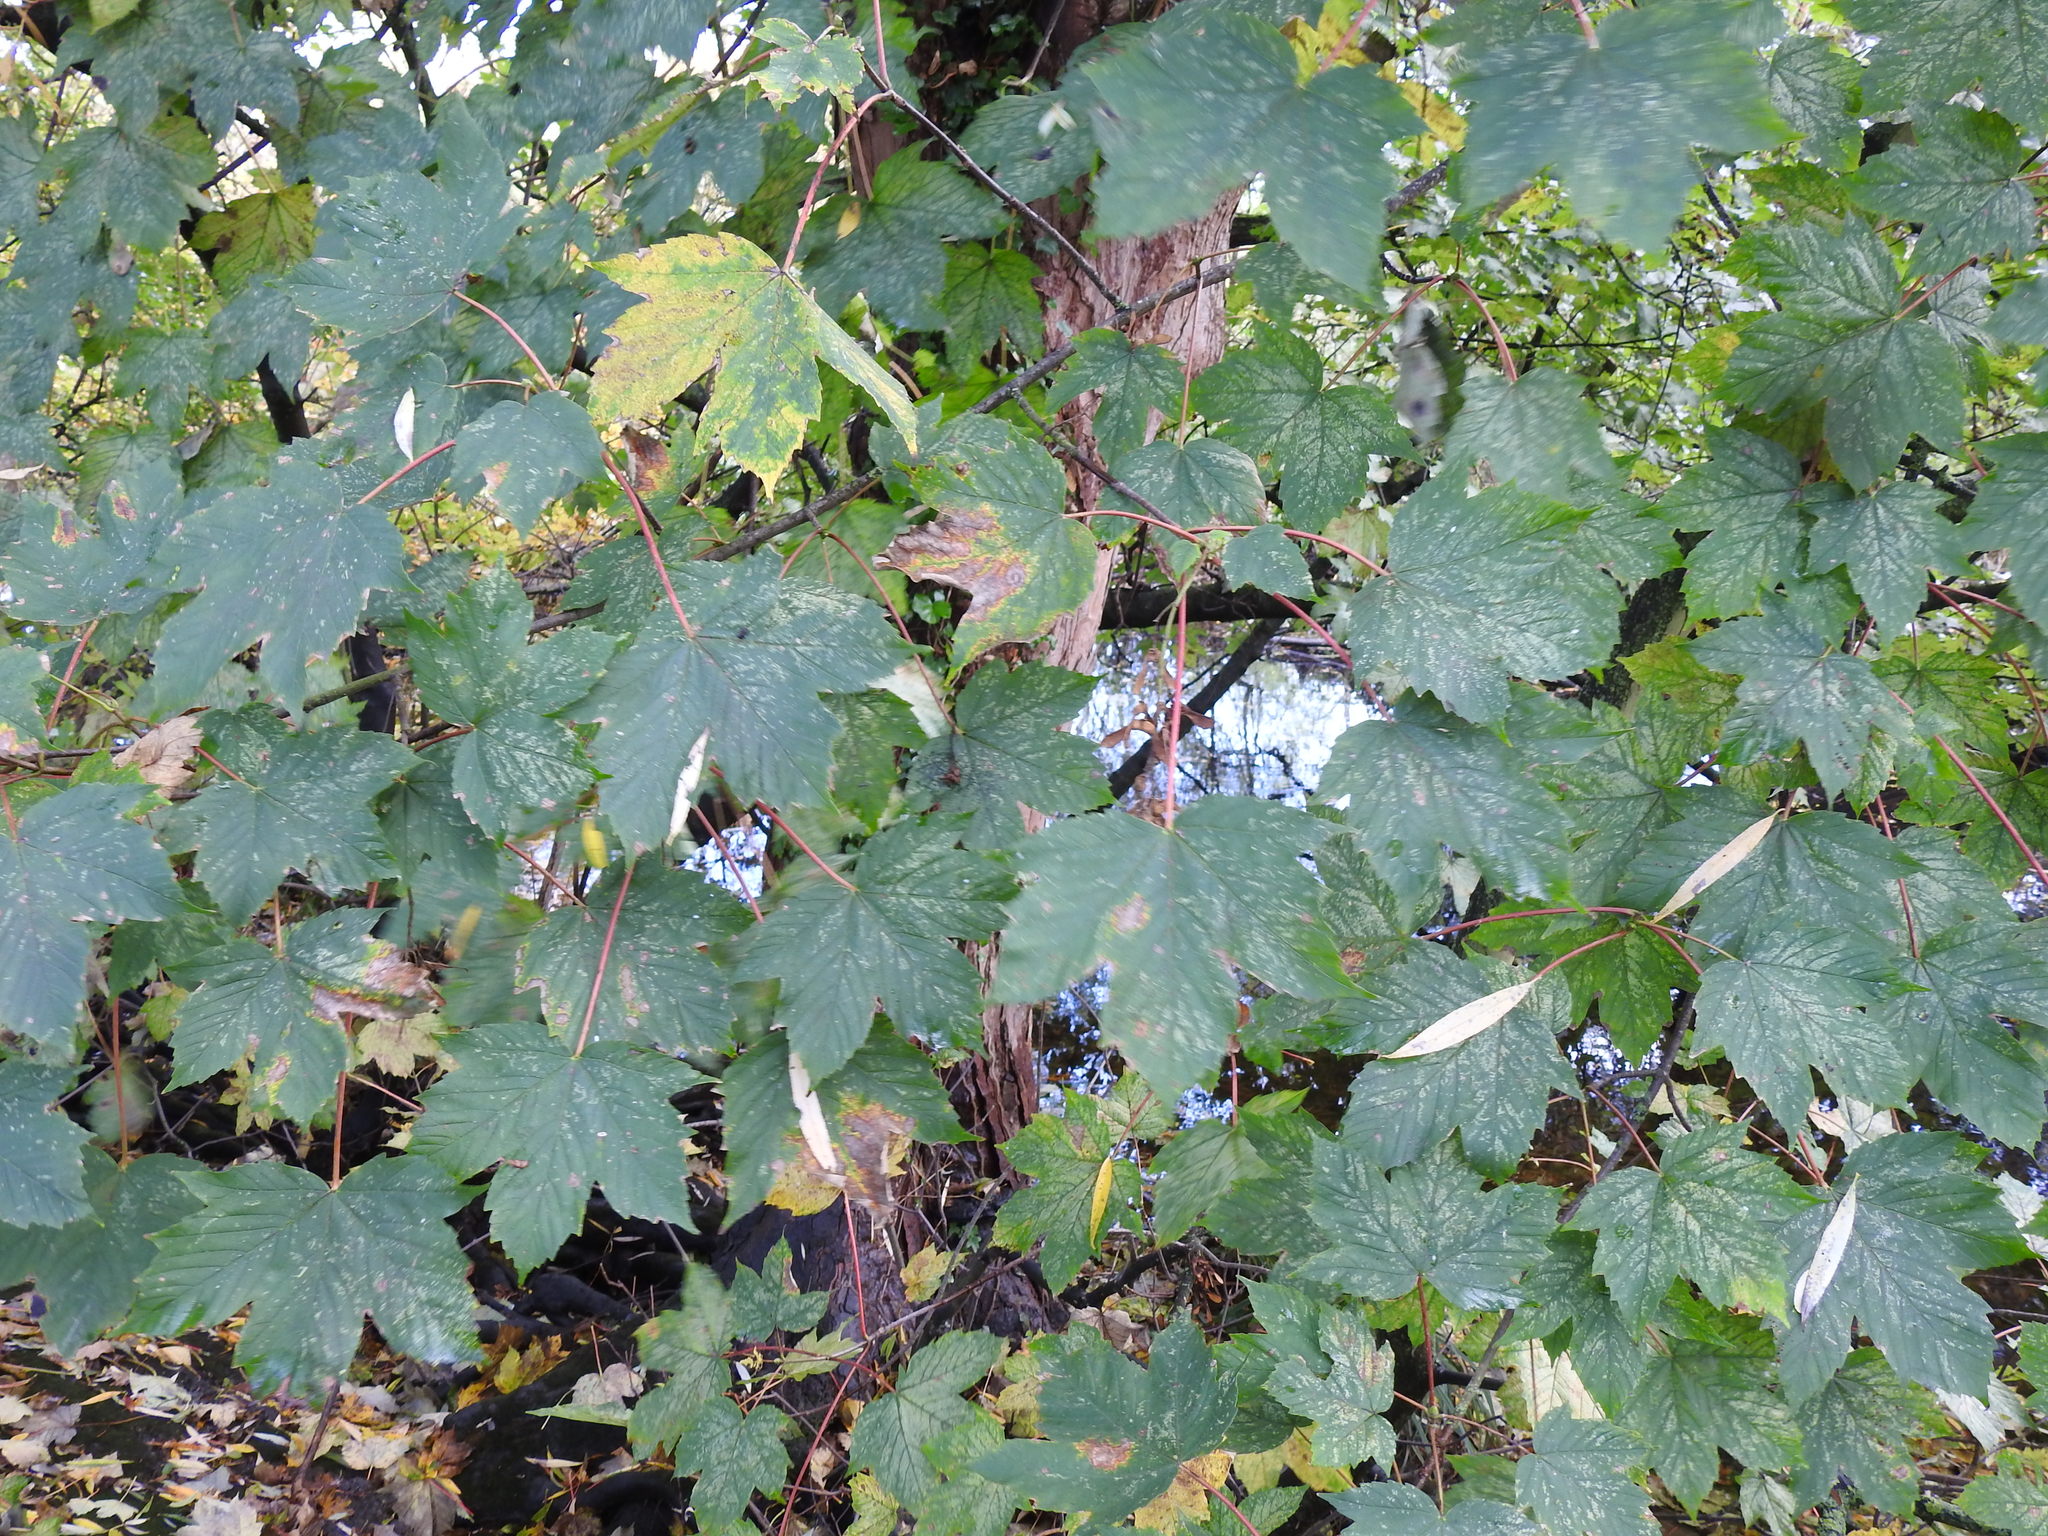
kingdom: Plantae
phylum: Tracheophyta
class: Magnoliopsida
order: Sapindales
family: Sapindaceae
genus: Acer
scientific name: Acer pseudoplatanus
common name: Sycamore
